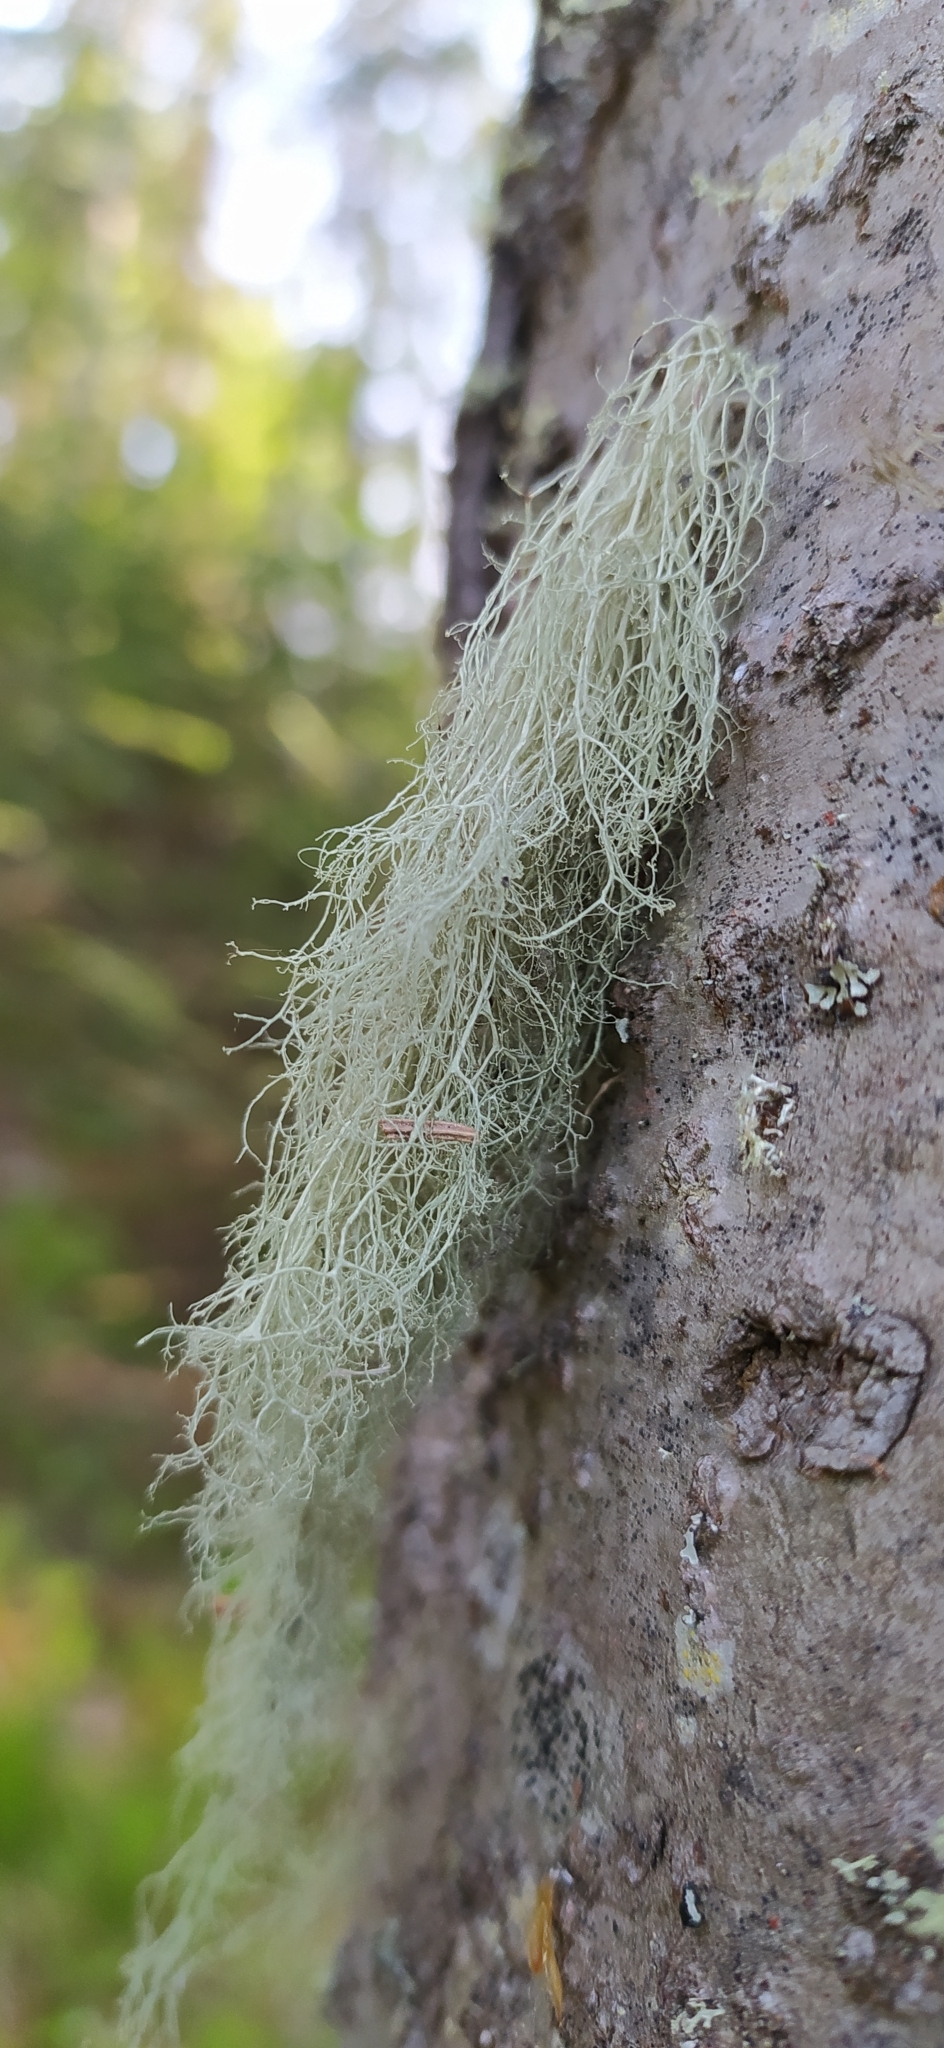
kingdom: Fungi
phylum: Ascomycota
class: Lecanoromycetes
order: Lecanorales
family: Ramalinaceae
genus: Ramalina
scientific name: Ramalina thrausta
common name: Angel's hair
